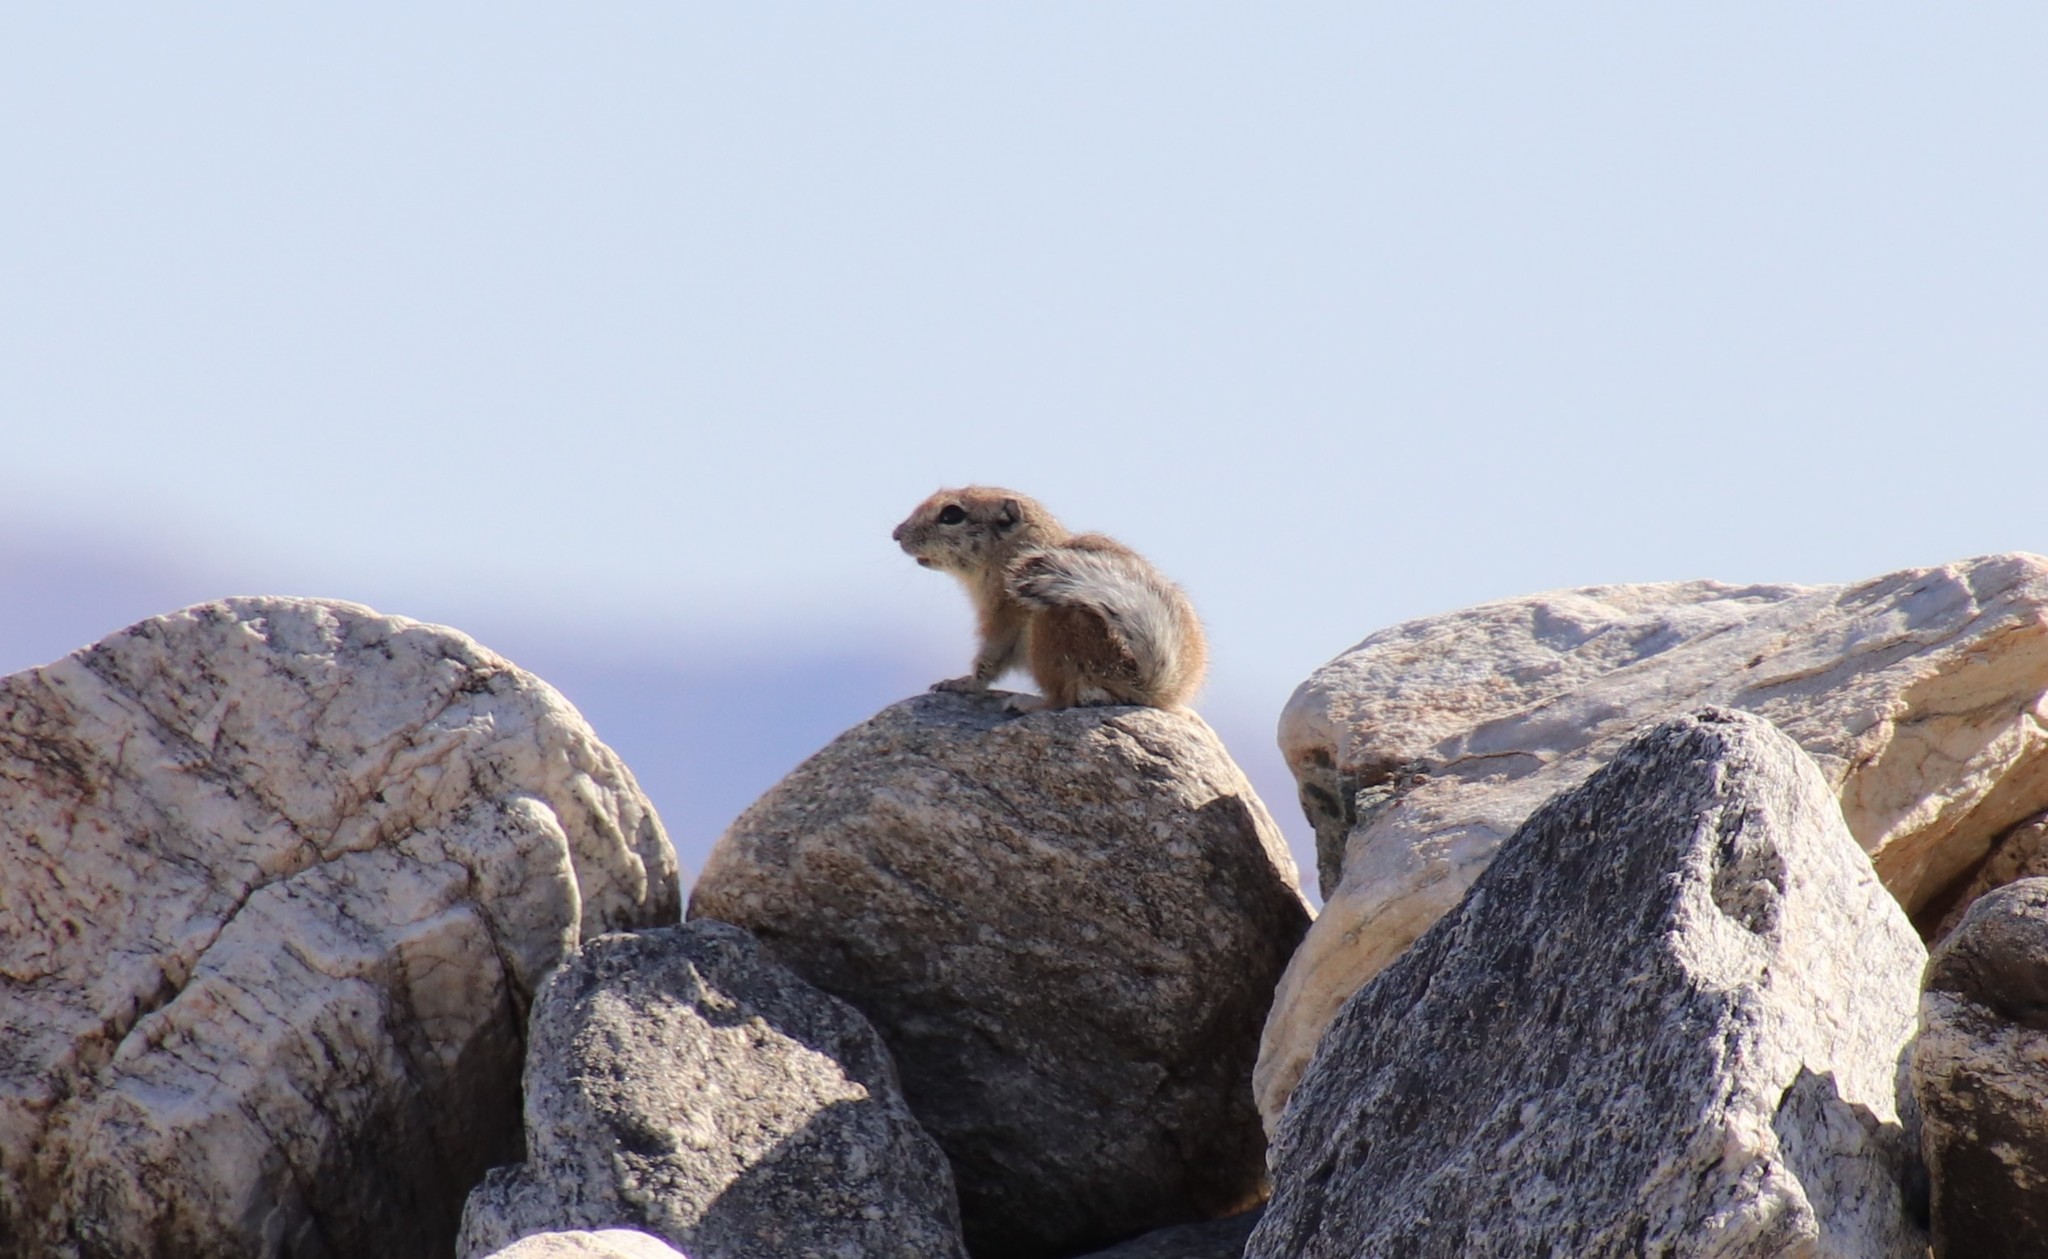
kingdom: Animalia
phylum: Chordata
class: Mammalia
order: Rodentia
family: Sciuridae
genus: Ammospermophilus
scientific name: Ammospermophilus leucurus
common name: White-tailed antelope squirrel
